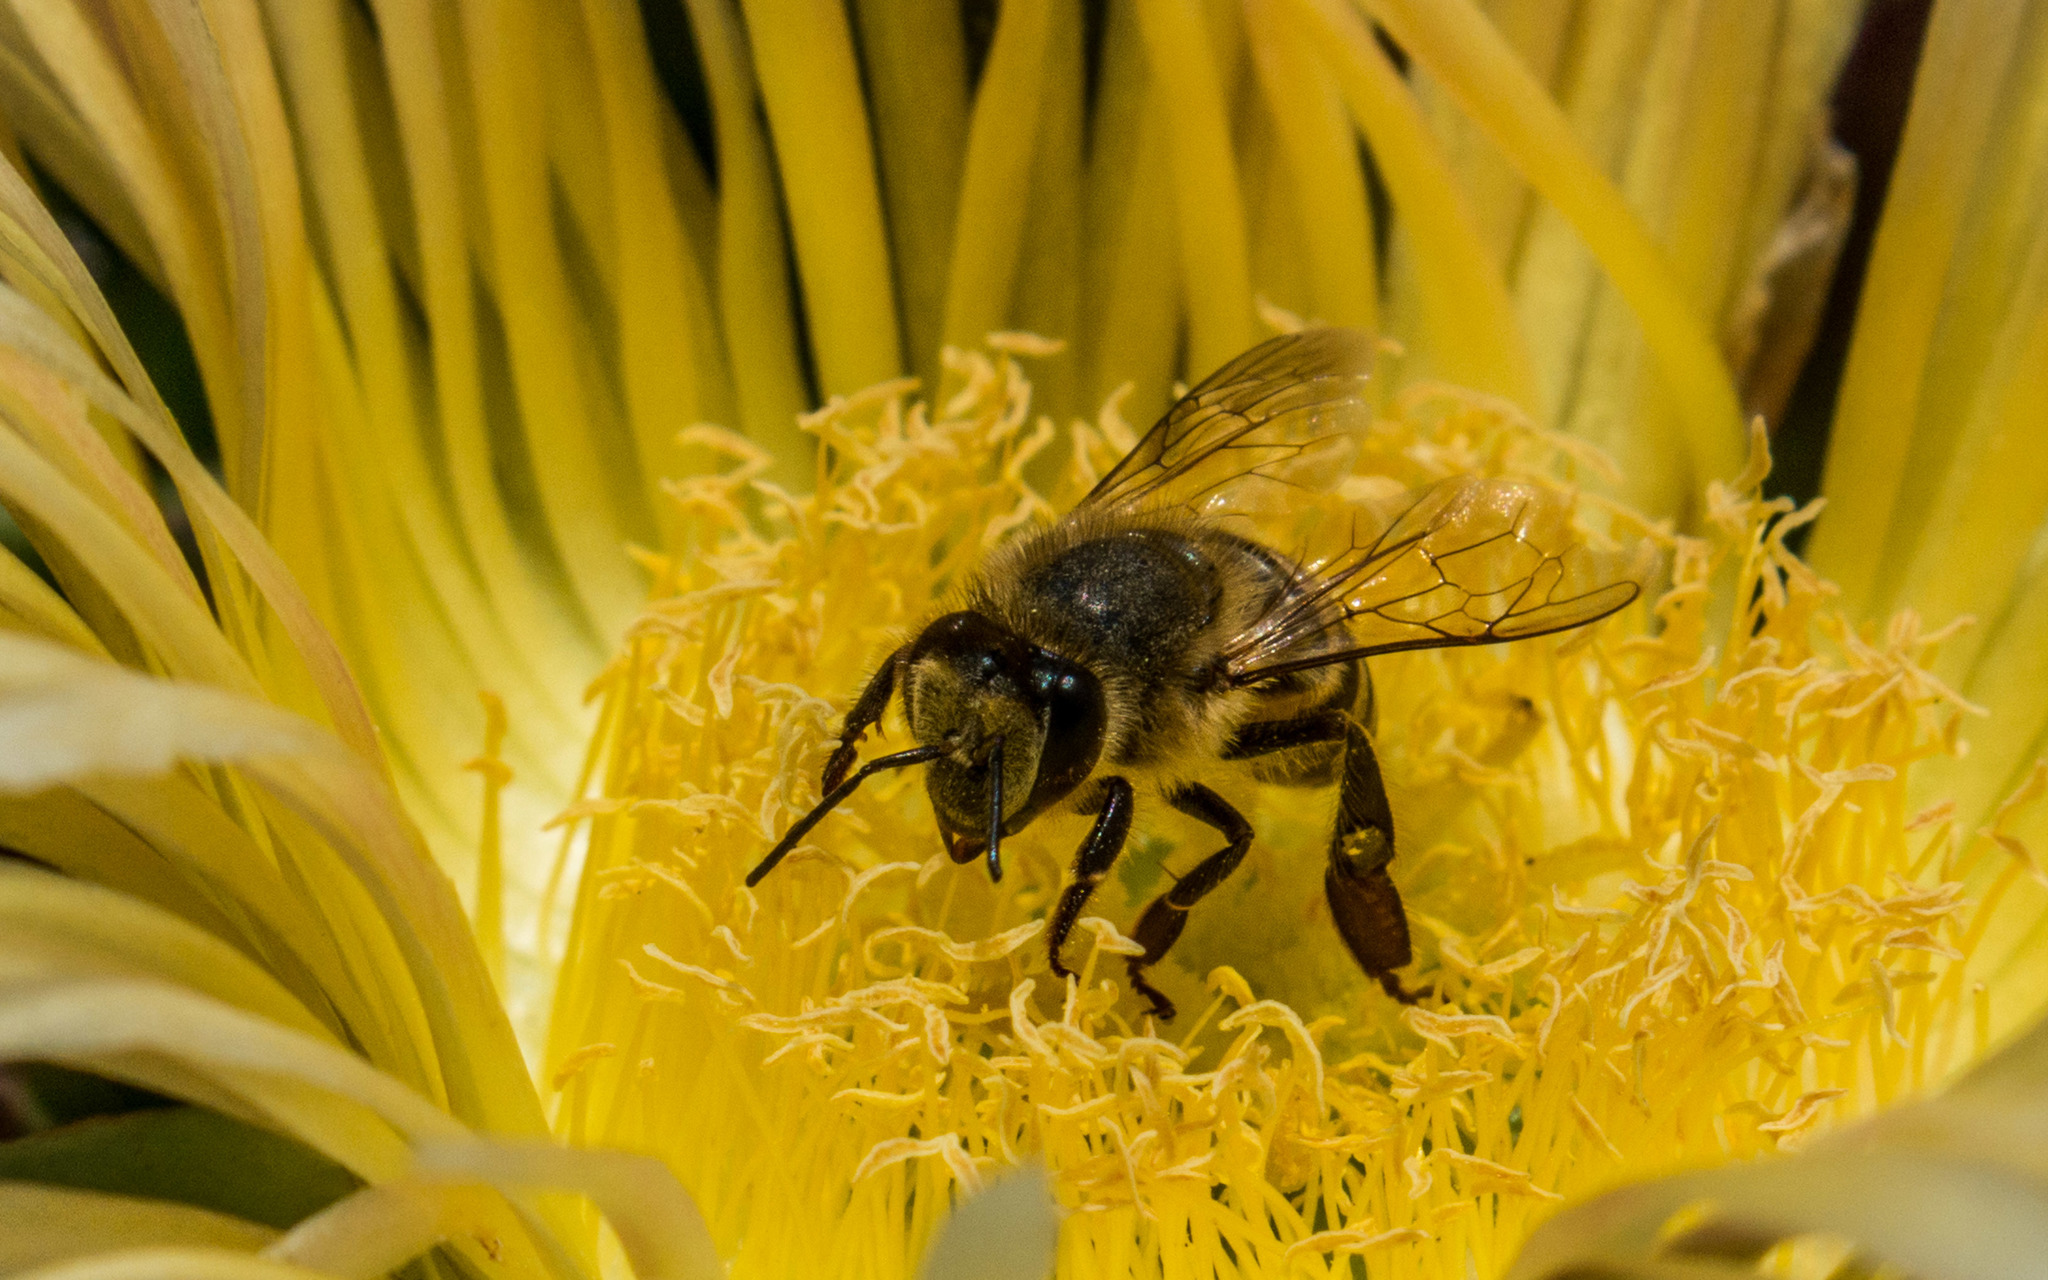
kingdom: Animalia
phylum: Arthropoda
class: Insecta
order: Hymenoptera
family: Apidae
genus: Apis
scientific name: Apis mellifera
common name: Honey bee
